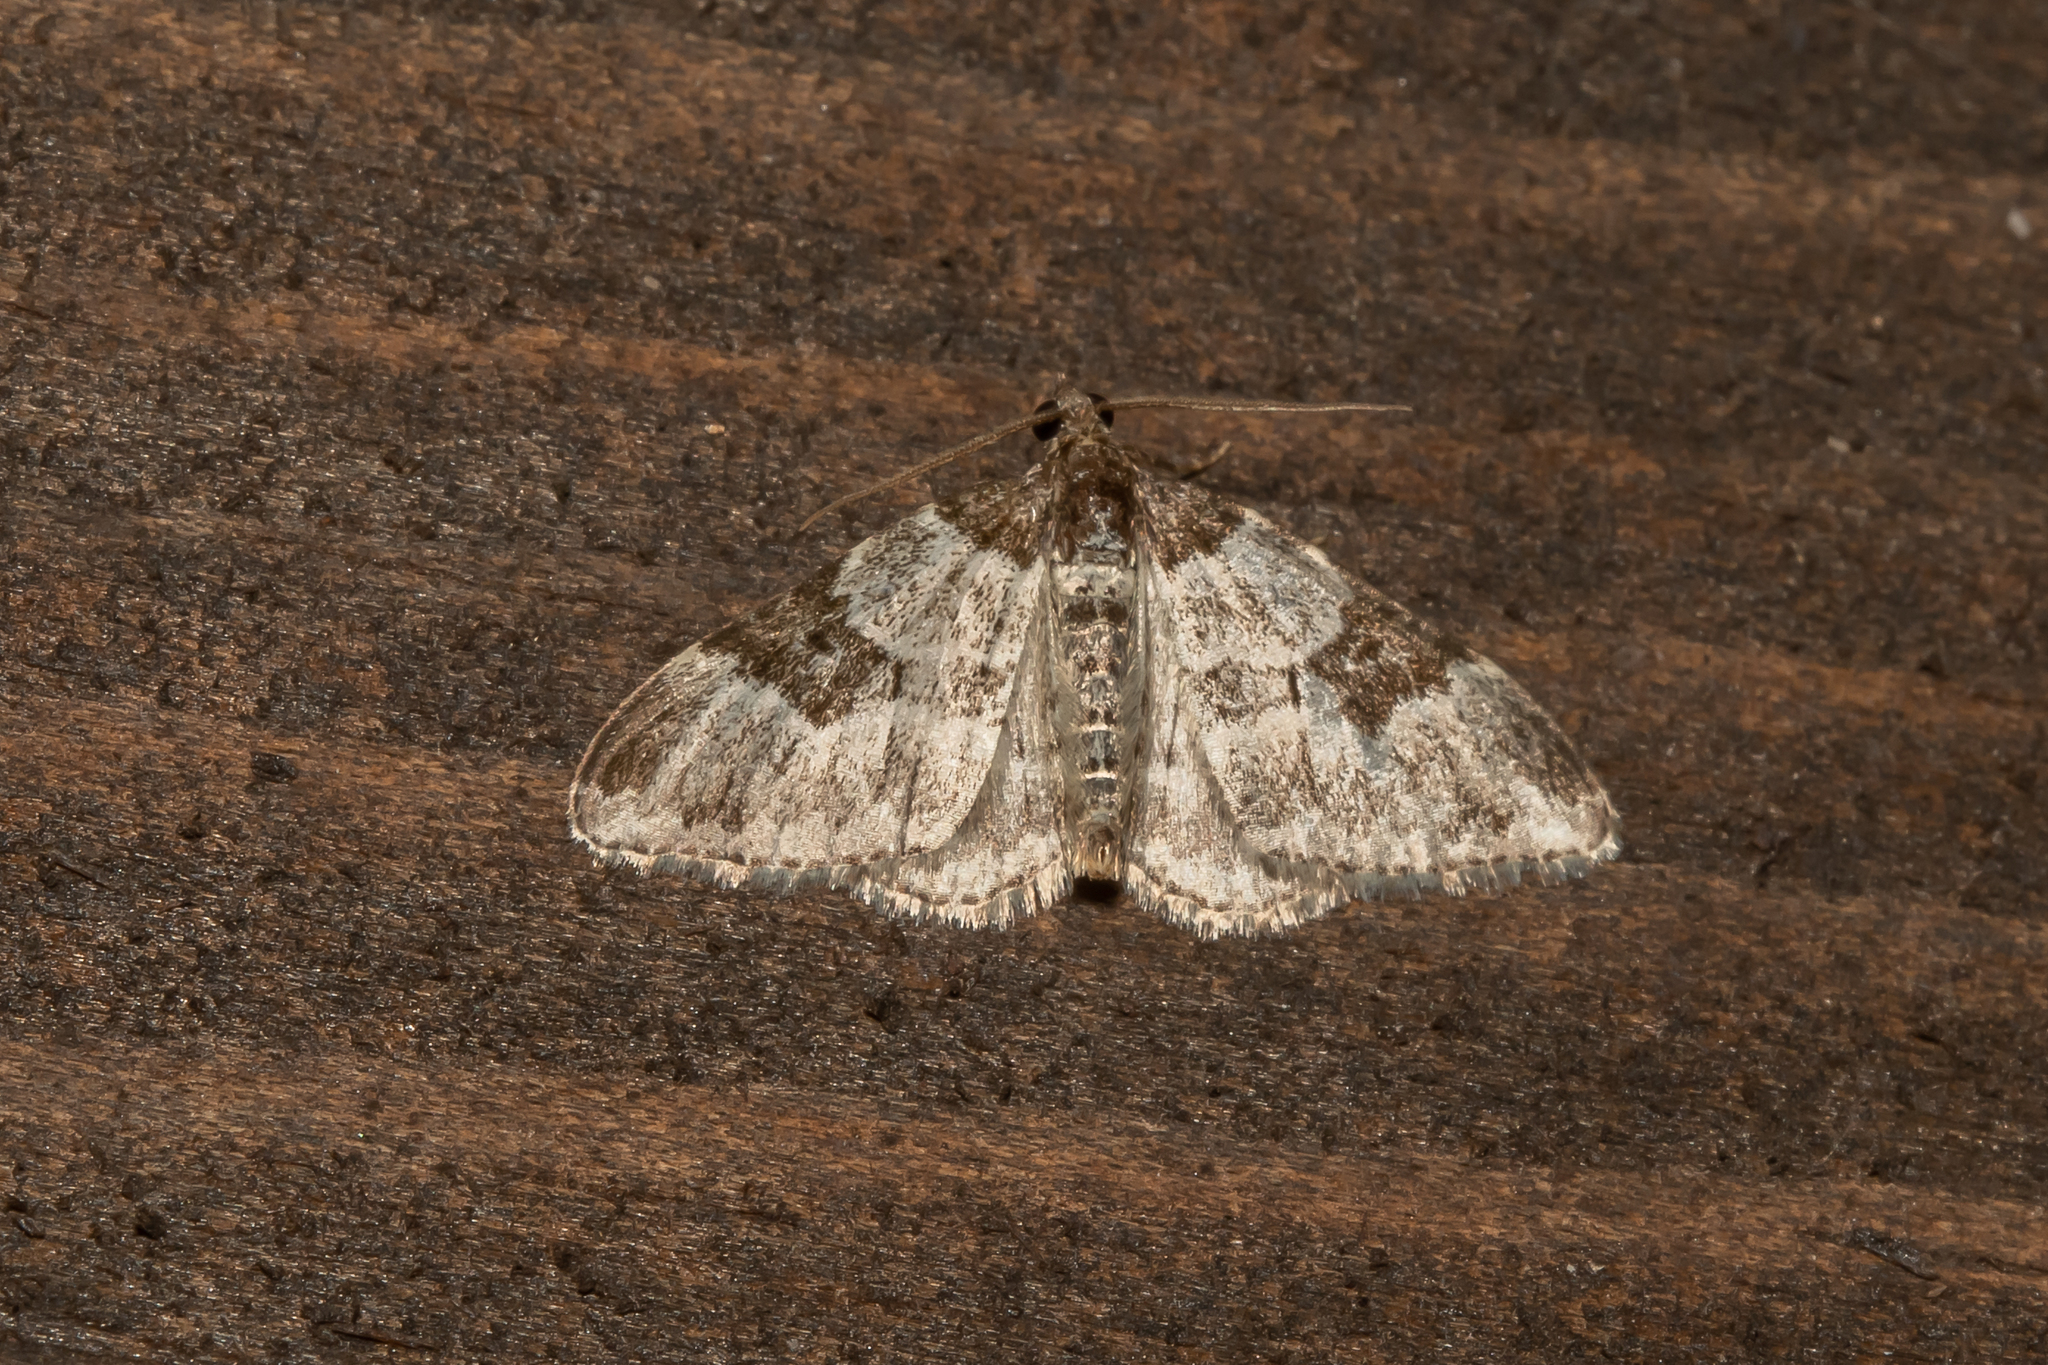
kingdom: Animalia
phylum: Arthropoda
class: Insecta
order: Lepidoptera
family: Geometridae
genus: Xanthorhoe
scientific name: Xanthorhoe fluctuata
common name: Garden carpet
